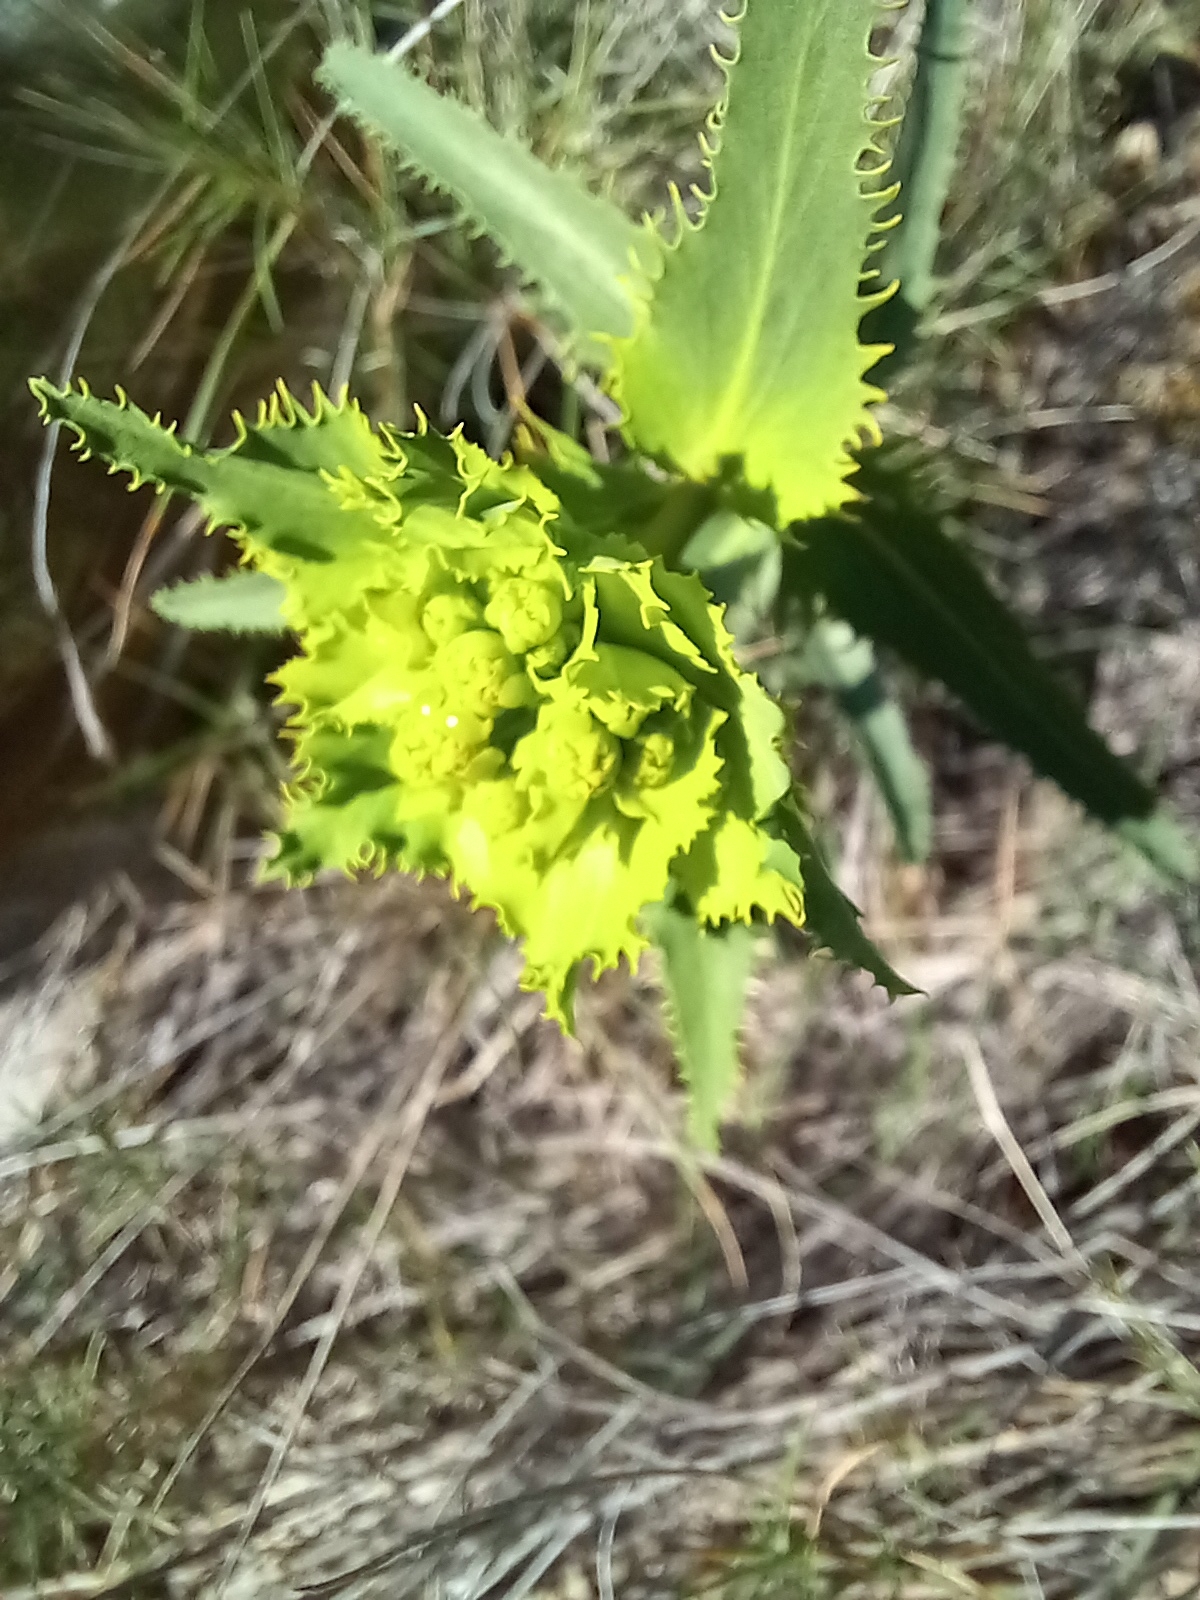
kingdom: Plantae
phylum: Tracheophyta
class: Magnoliopsida
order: Malpighiales
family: Euphorbiaceae
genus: Euphorbia
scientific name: Euphorbia serrata
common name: Serrate spurge
